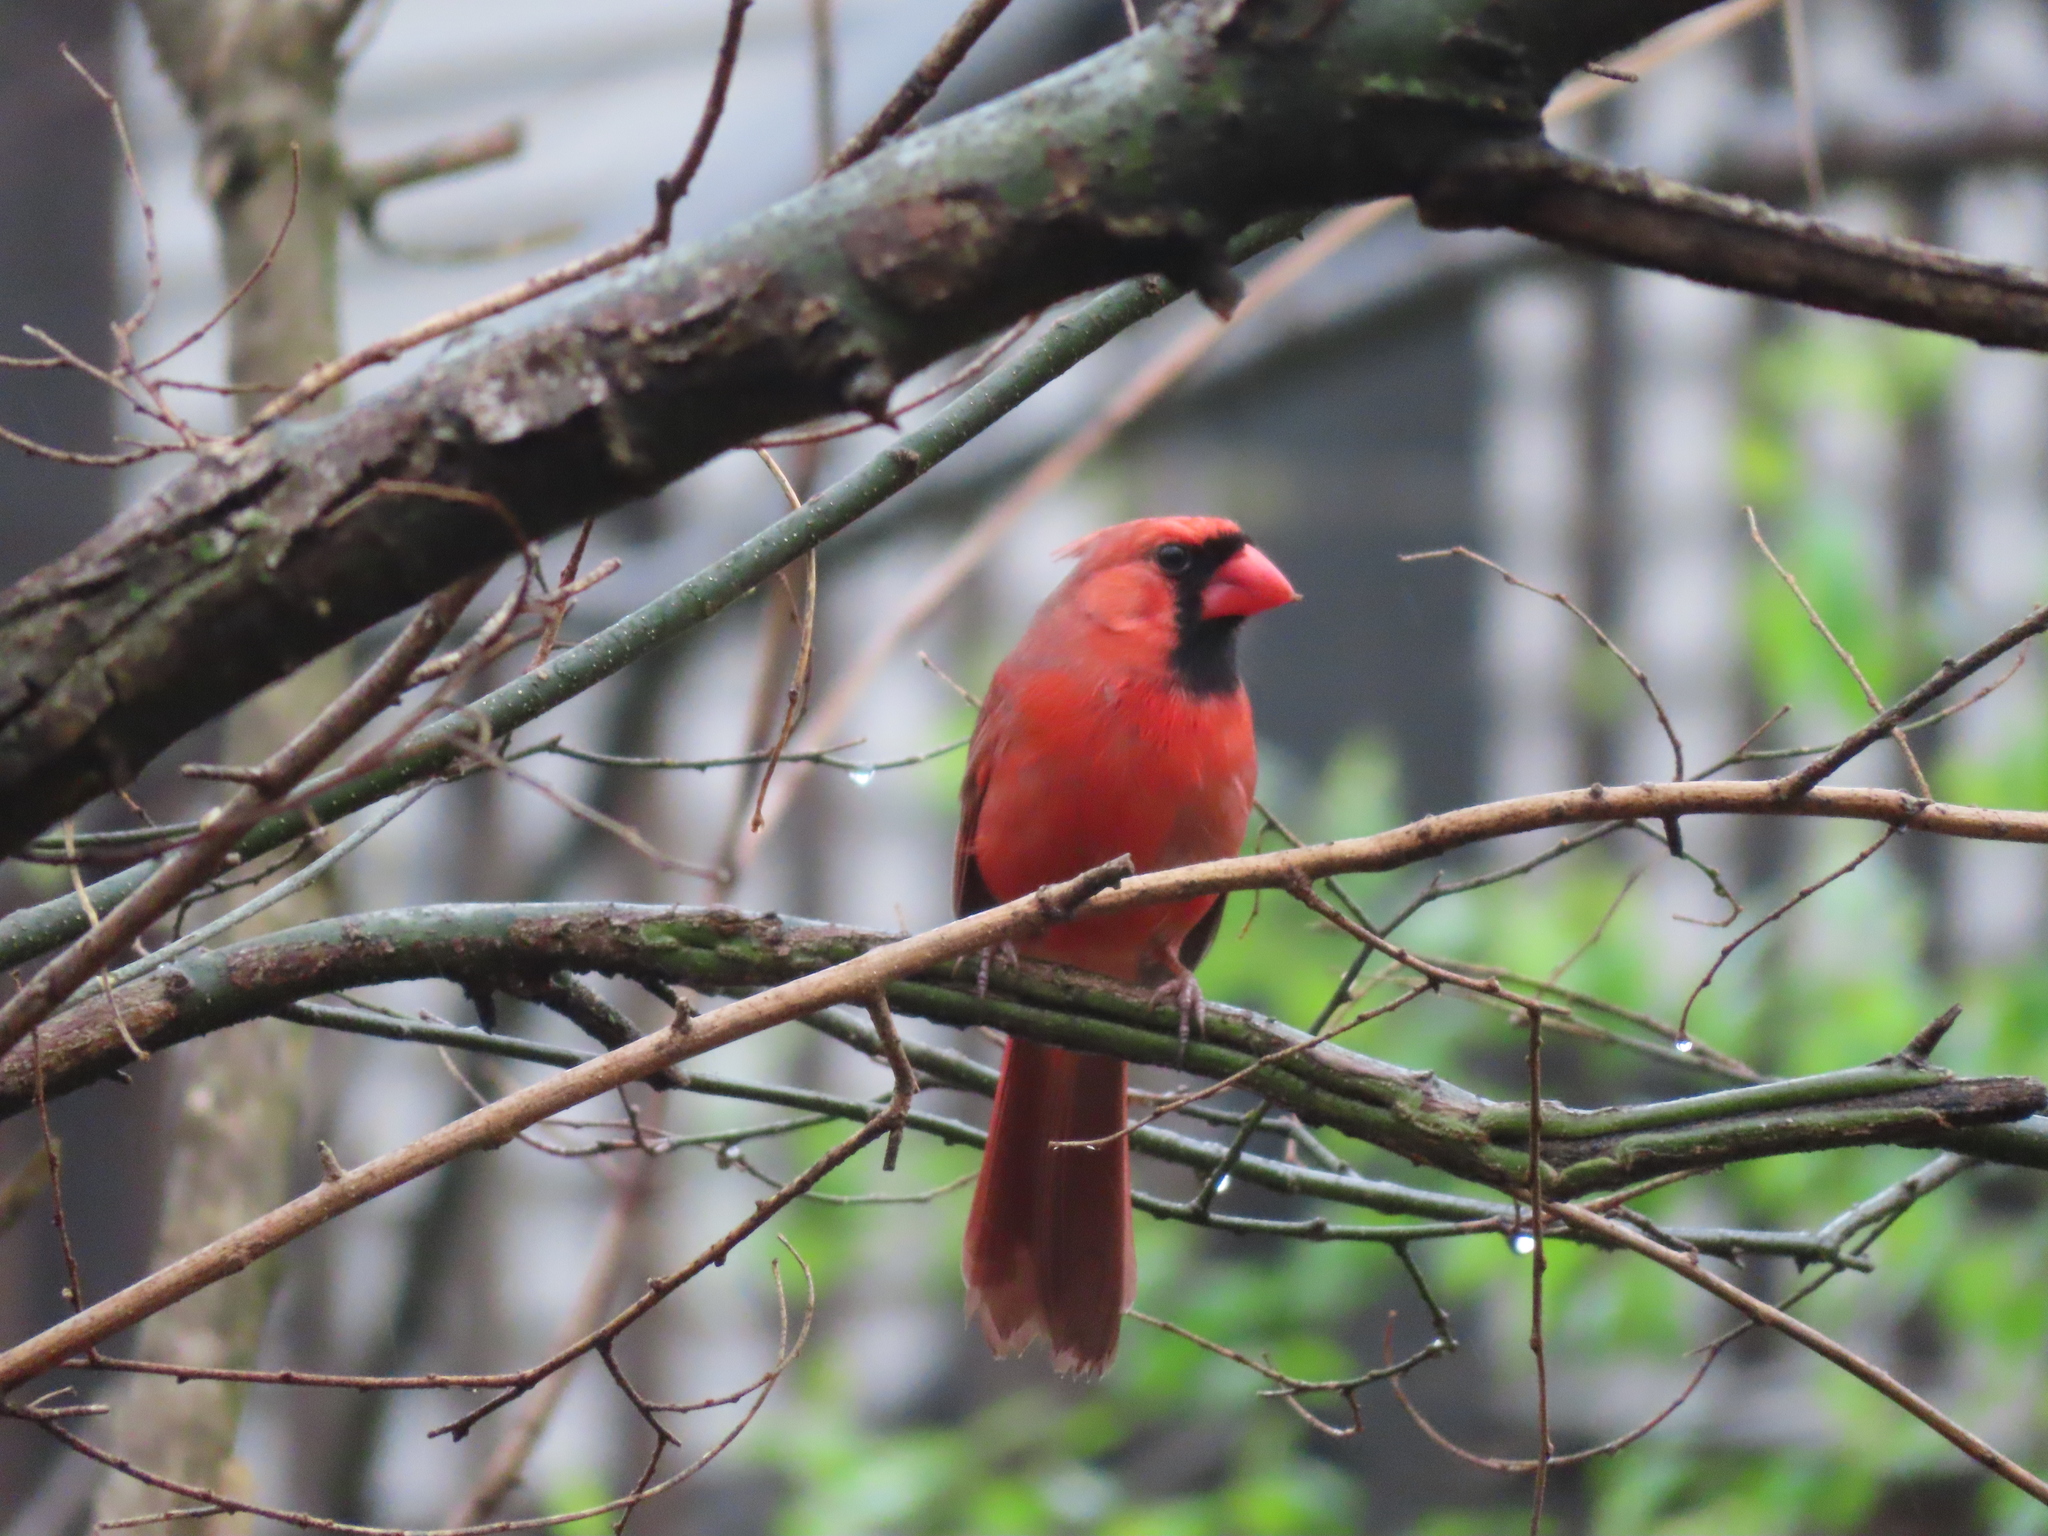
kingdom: Animalia
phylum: Chordata
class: Aves
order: Passeriformes
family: Cardinalidae
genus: Cardinalis
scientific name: Cardinalis cardinalis
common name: Northern cardinal
